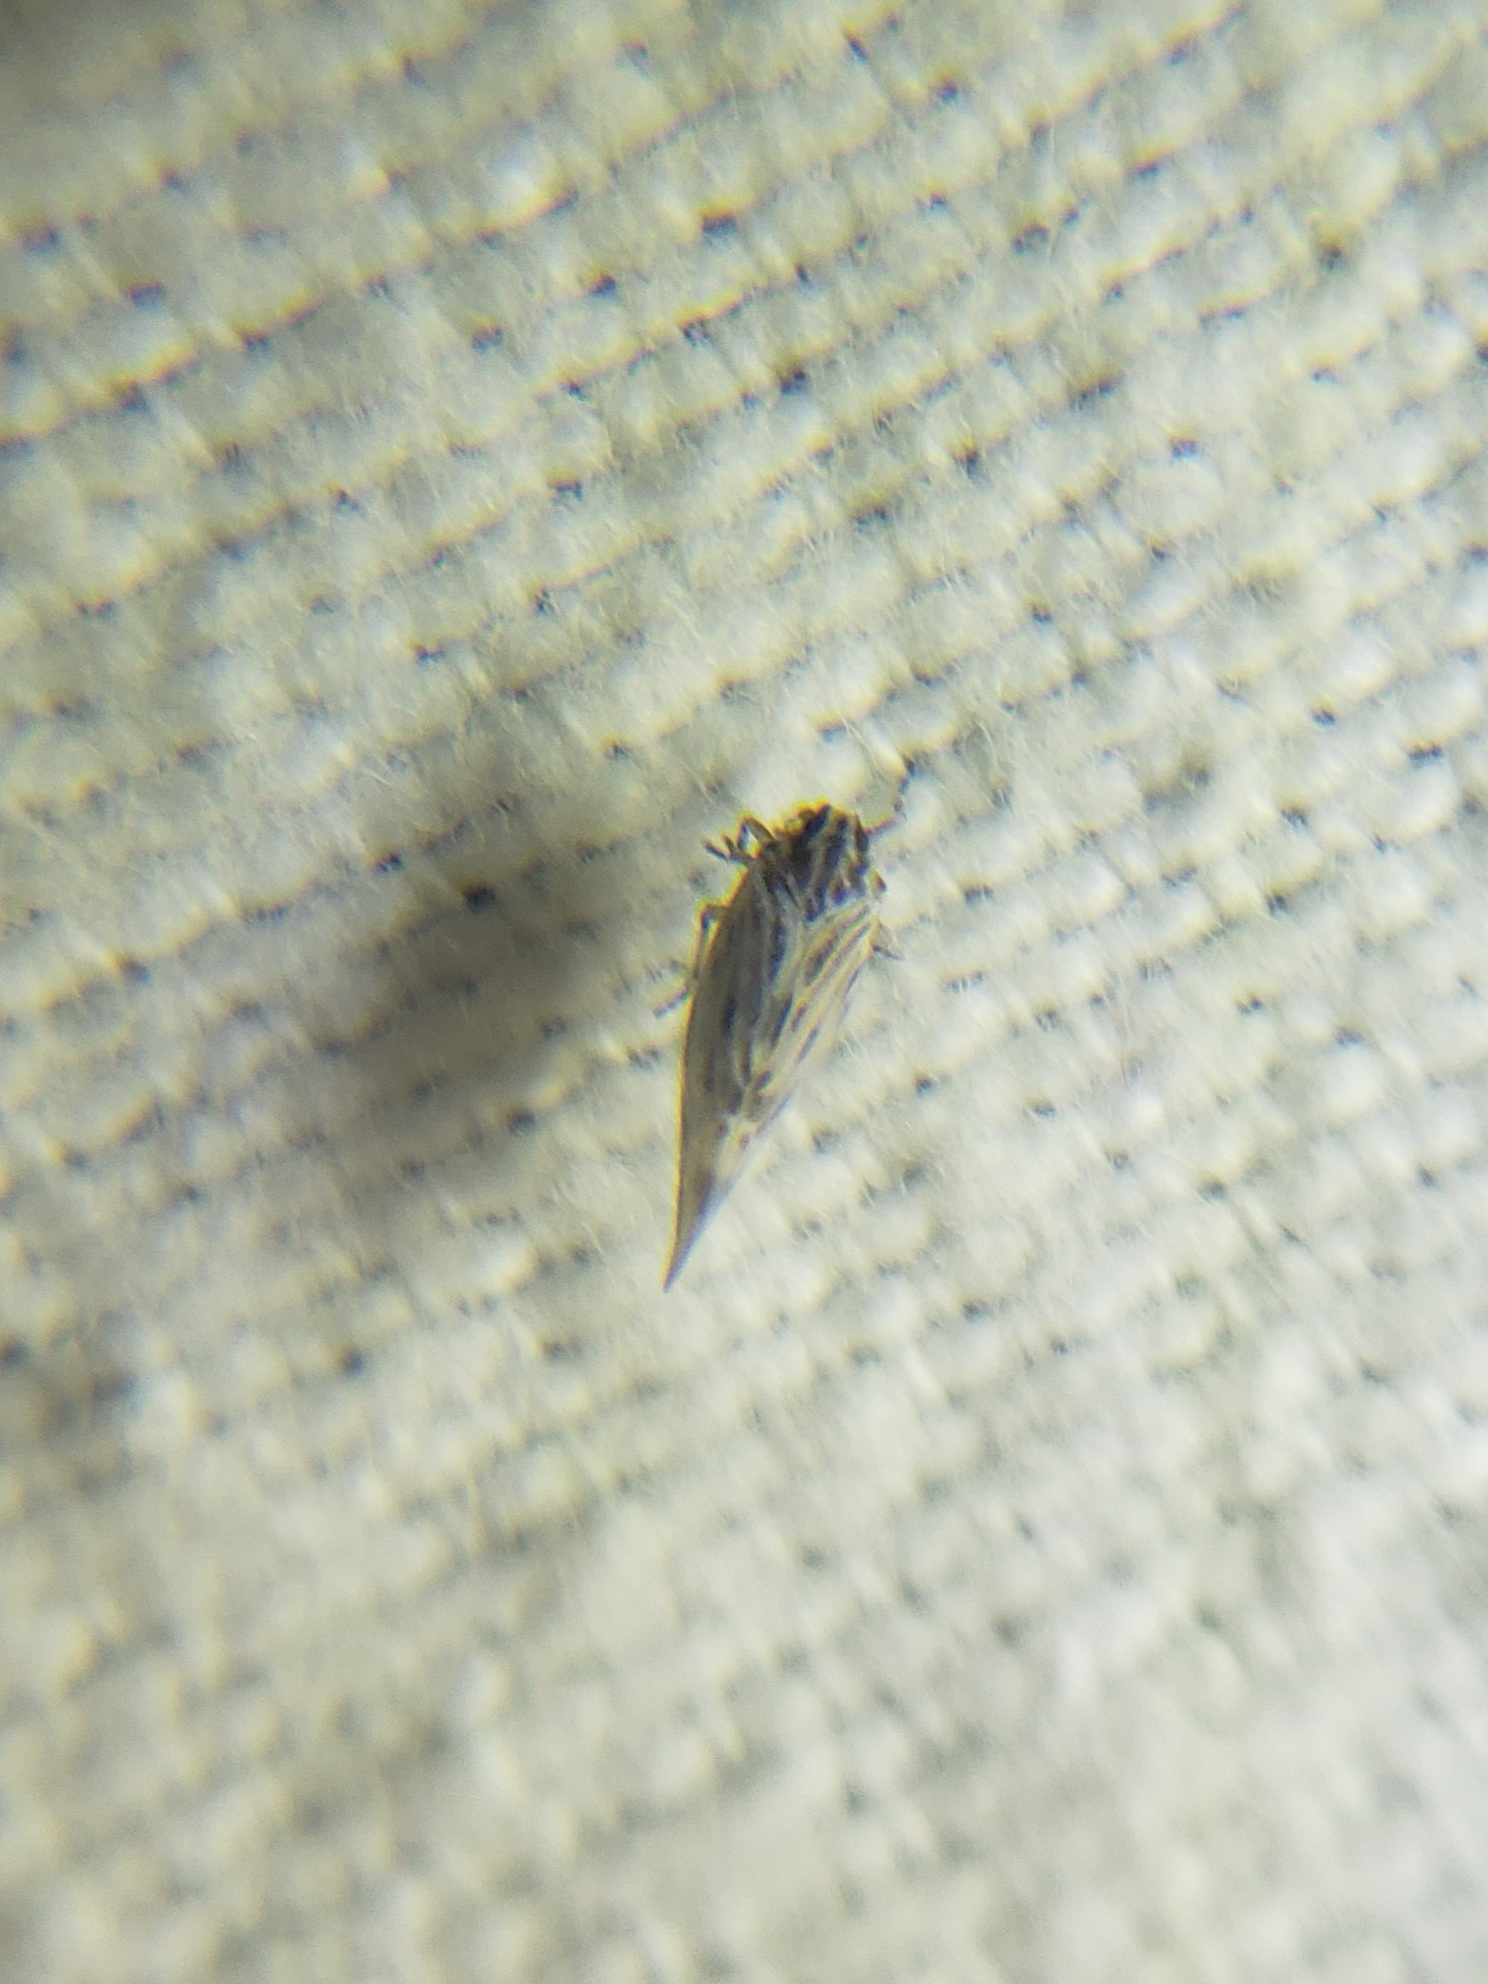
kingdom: Animalia
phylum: Arthropoda
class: Insecta
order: Hemiptera
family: Derbidae
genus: Cedusa
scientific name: Cedusa maculata
